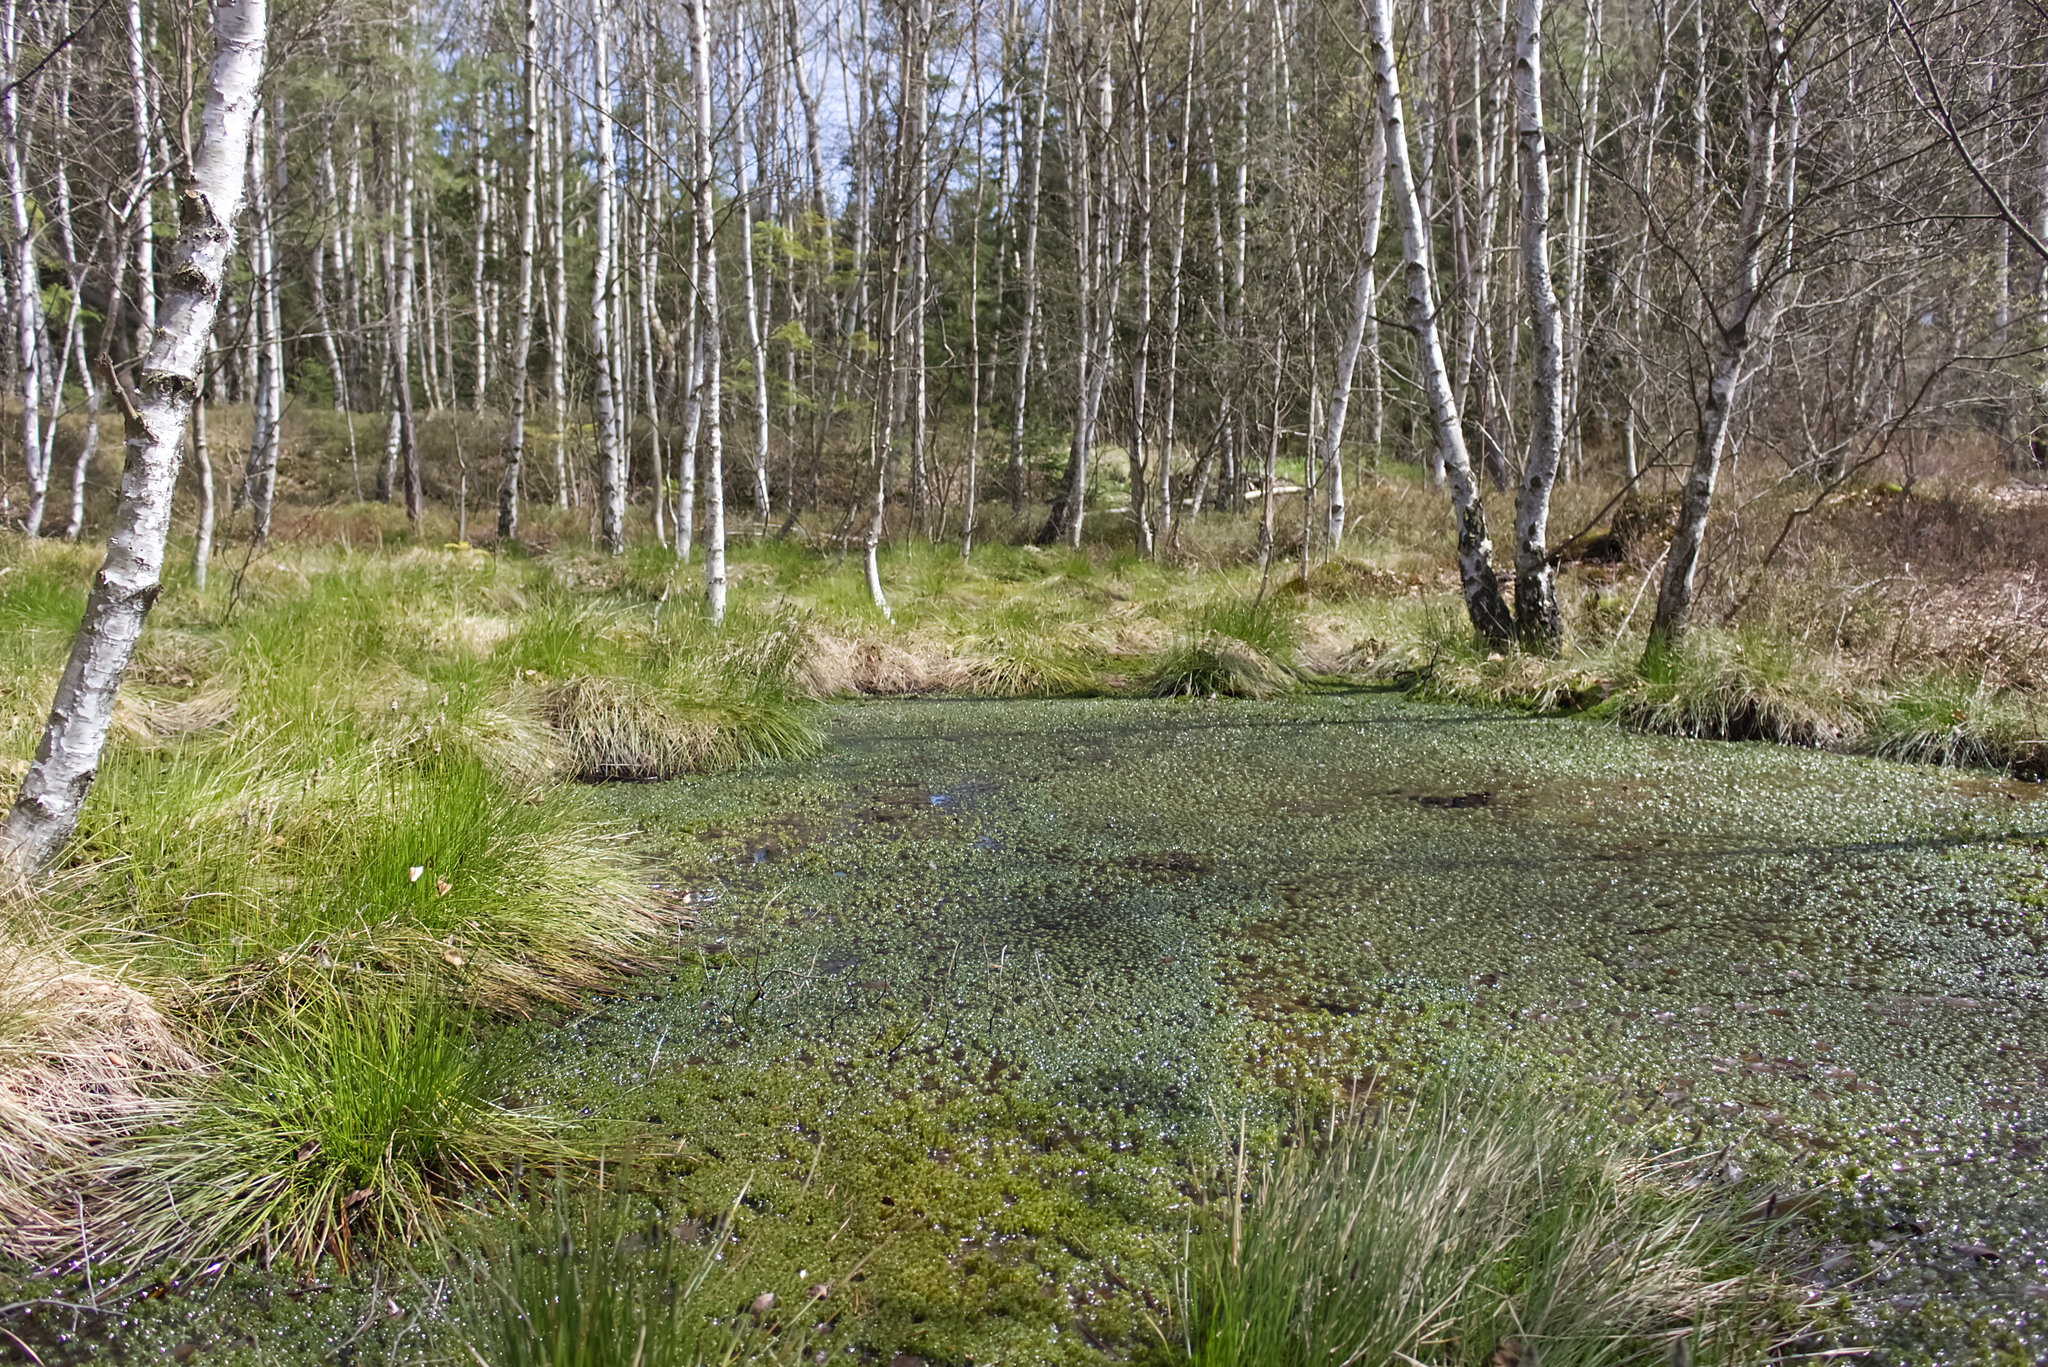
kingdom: Plantae
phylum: Tracheophyta
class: Liliopsida
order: Poales
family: Cyperaceae
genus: Eriophorum
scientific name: Eriophorum vaginatum
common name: Hare's-tail cottongrass
